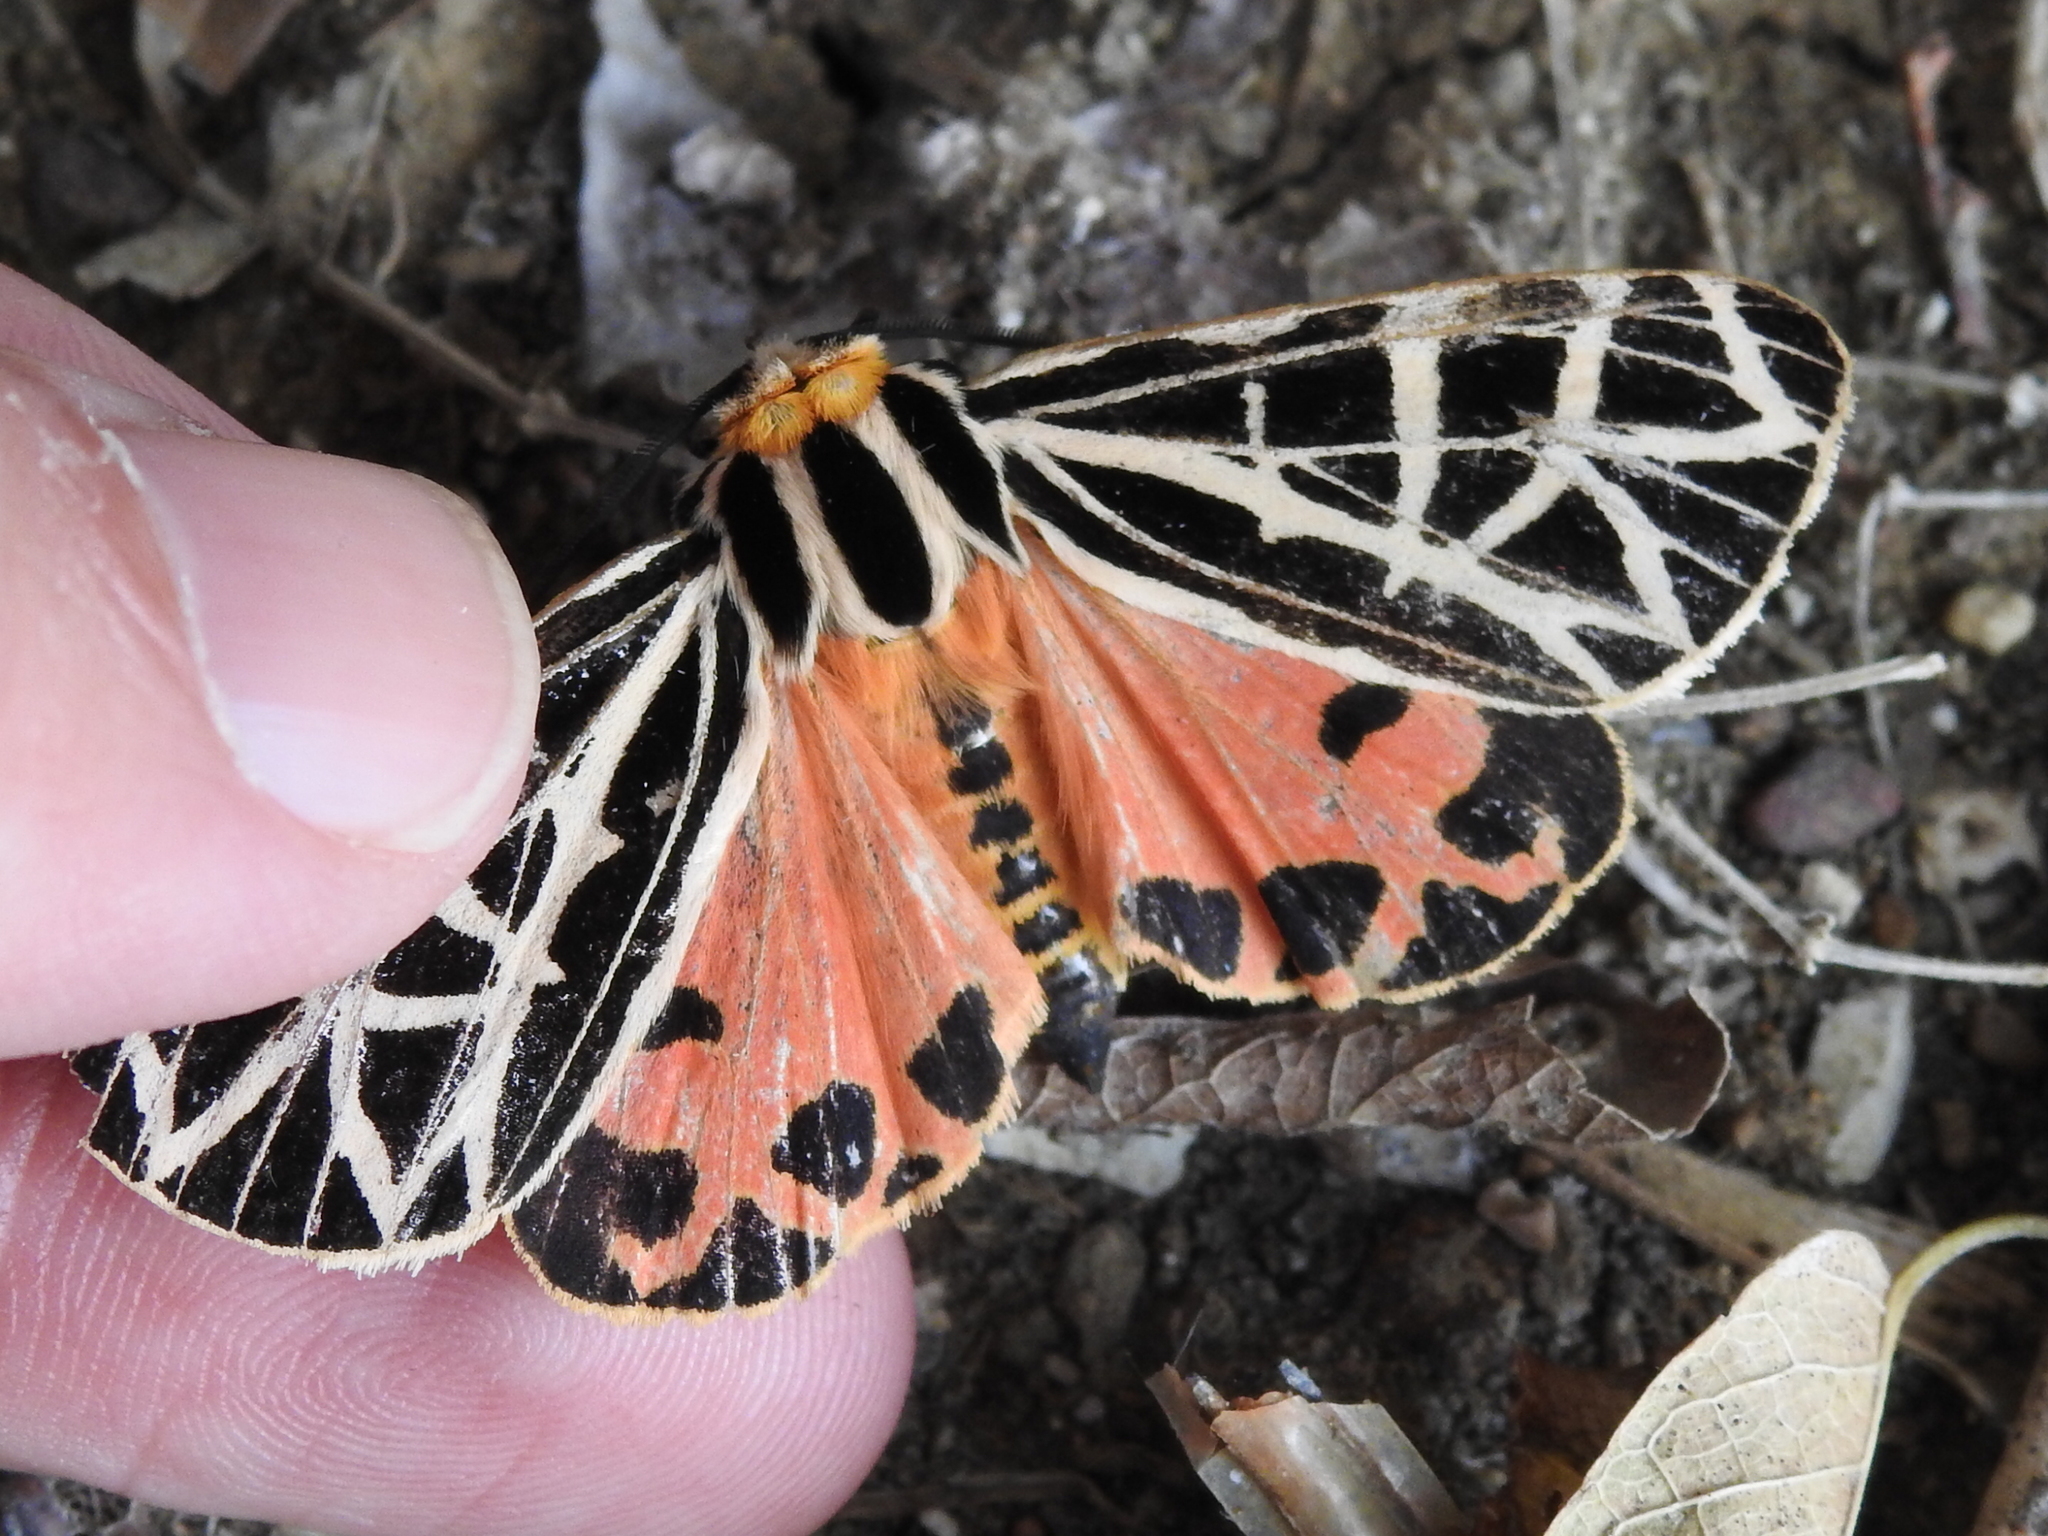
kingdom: Animalia
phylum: Arthropoda
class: Insecta
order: Lepidoptera
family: Erebidae
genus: Grammia
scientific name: Grammia parthenice
